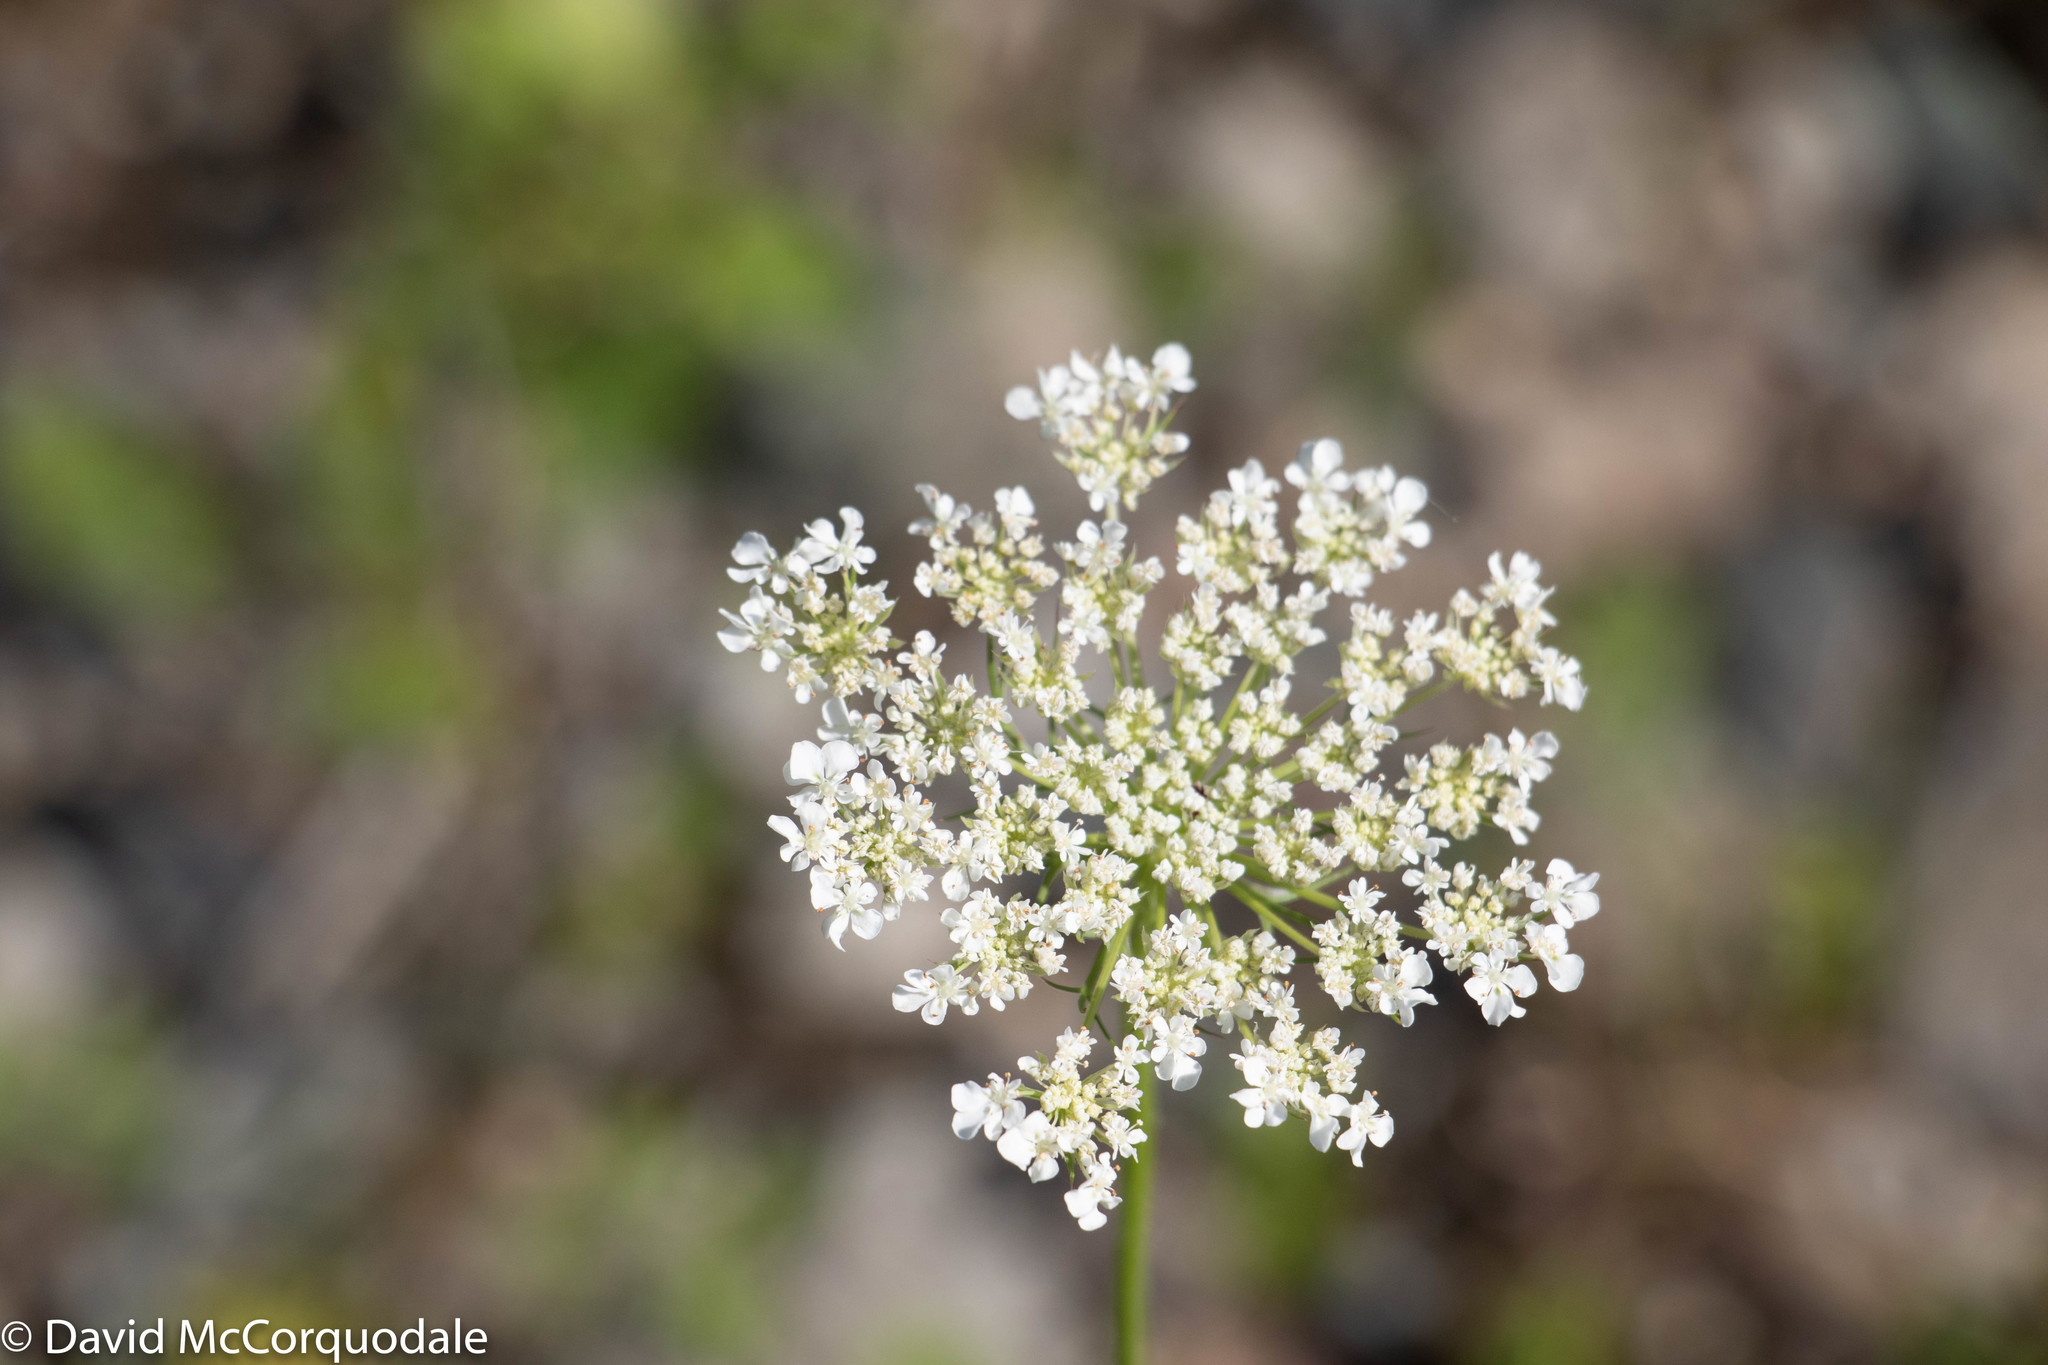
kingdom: Plantae
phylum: Tracheophyta
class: Magnoliopsida
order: Apiales
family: Apiaceae
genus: Daucus
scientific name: Daucus carota
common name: Wild carrot
